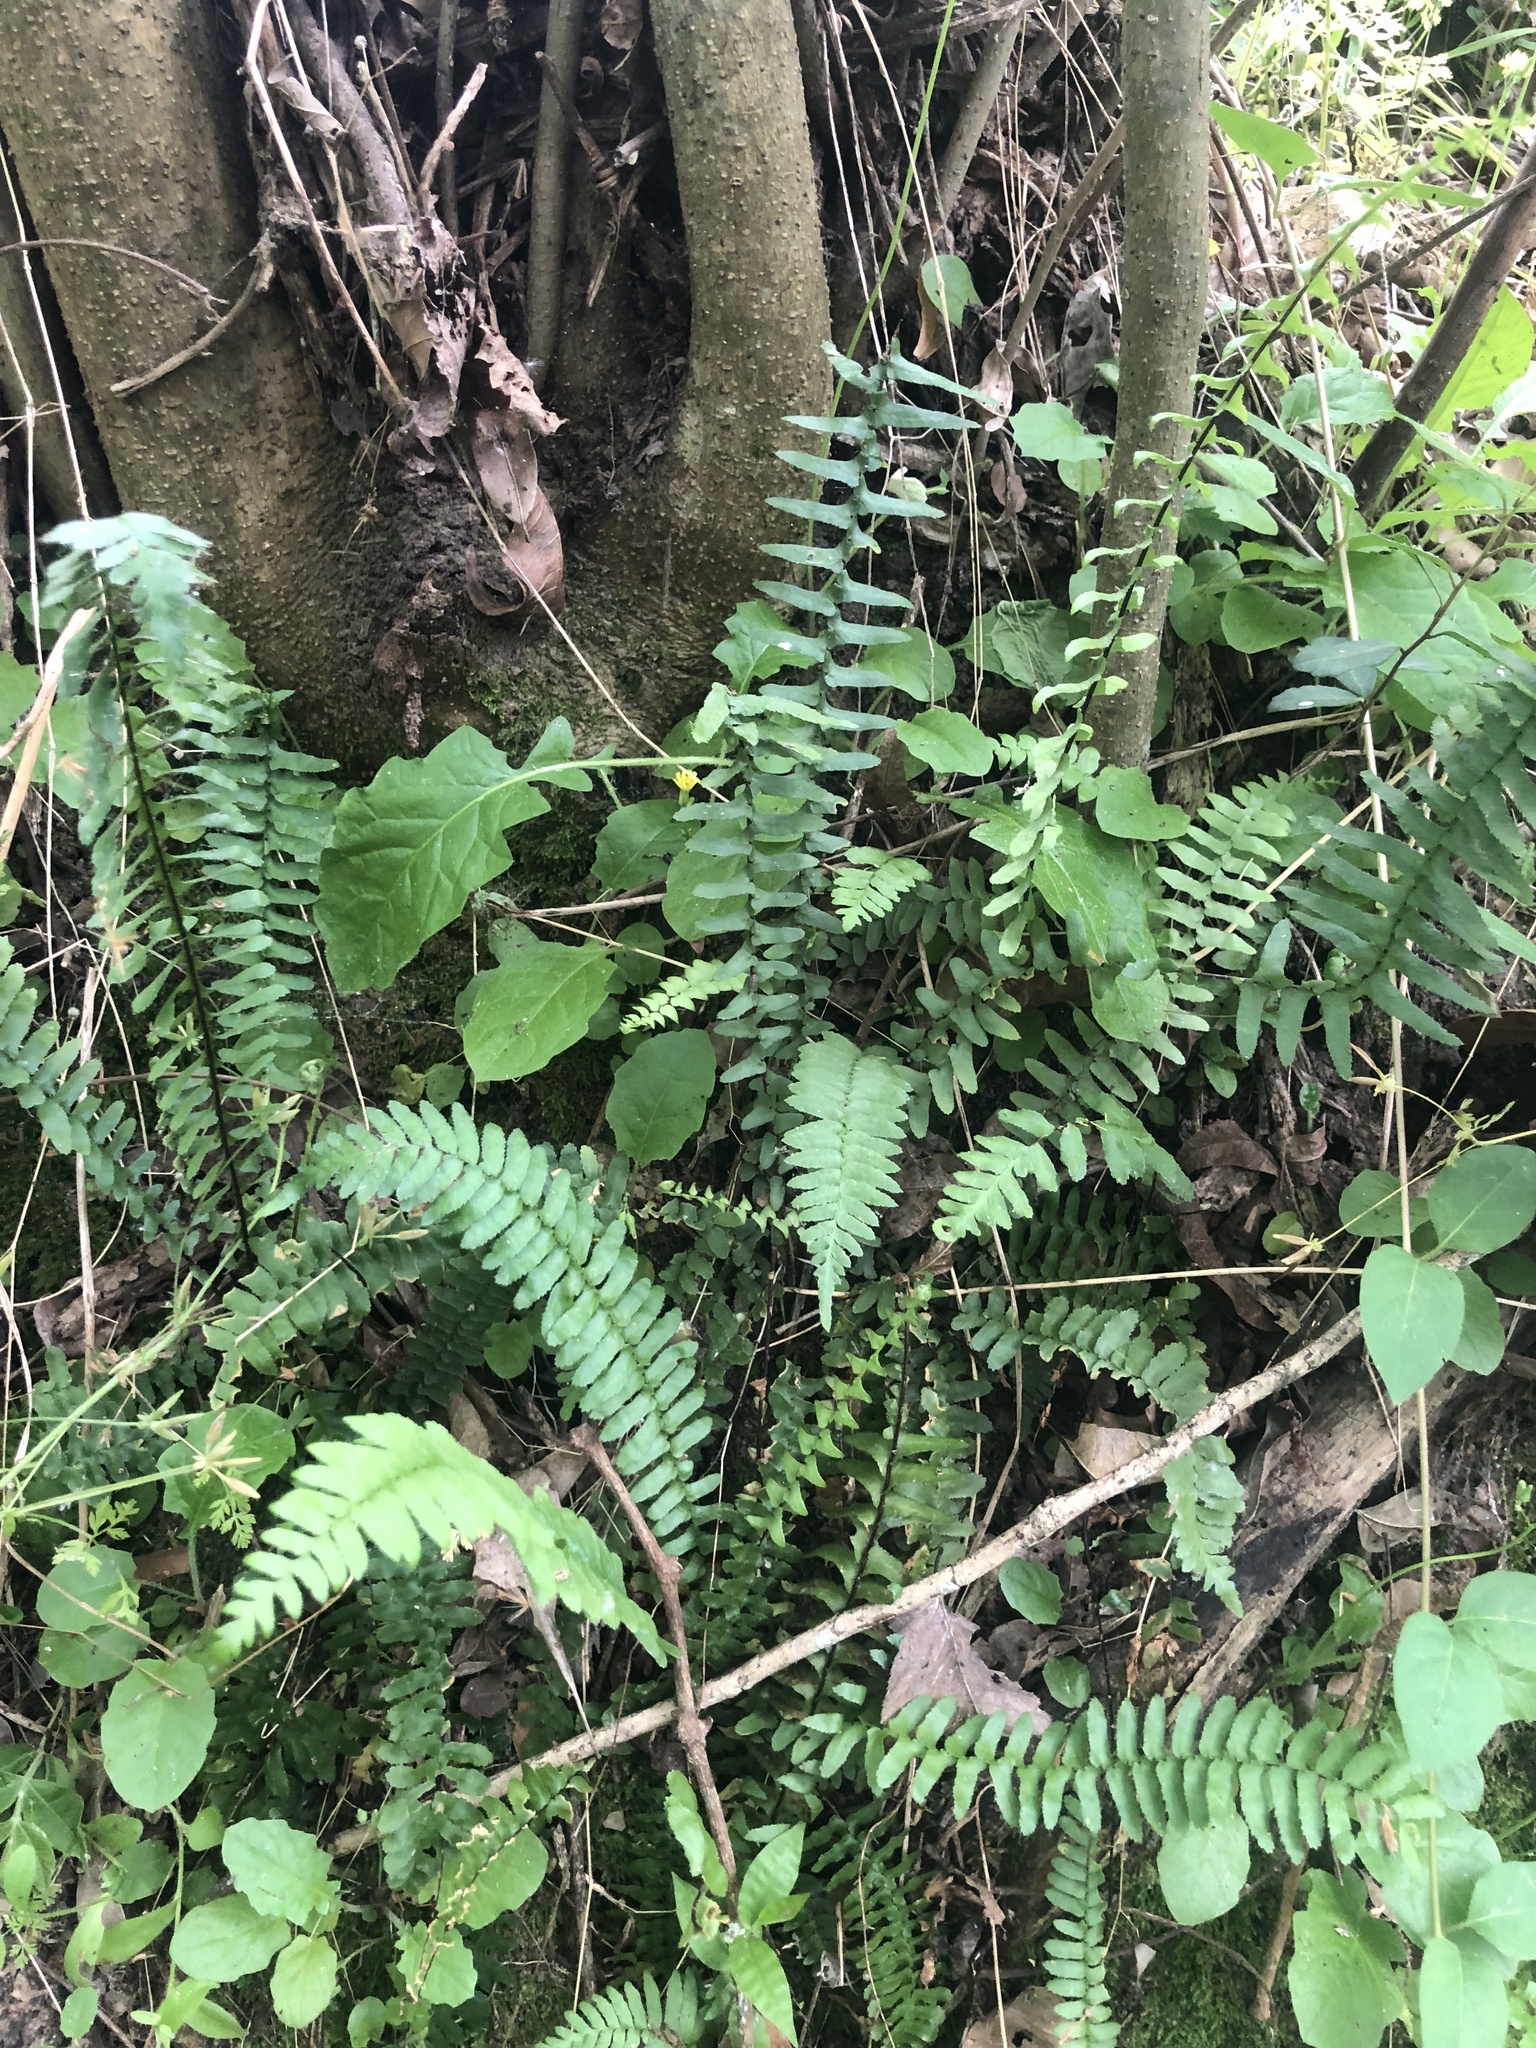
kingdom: Plantae
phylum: Tracheophyta
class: Polypodiopsida
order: Polypodiales
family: Aspleniaceae
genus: Asplenium
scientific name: Asplenium platyneuron
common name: Ebony spleenwort
